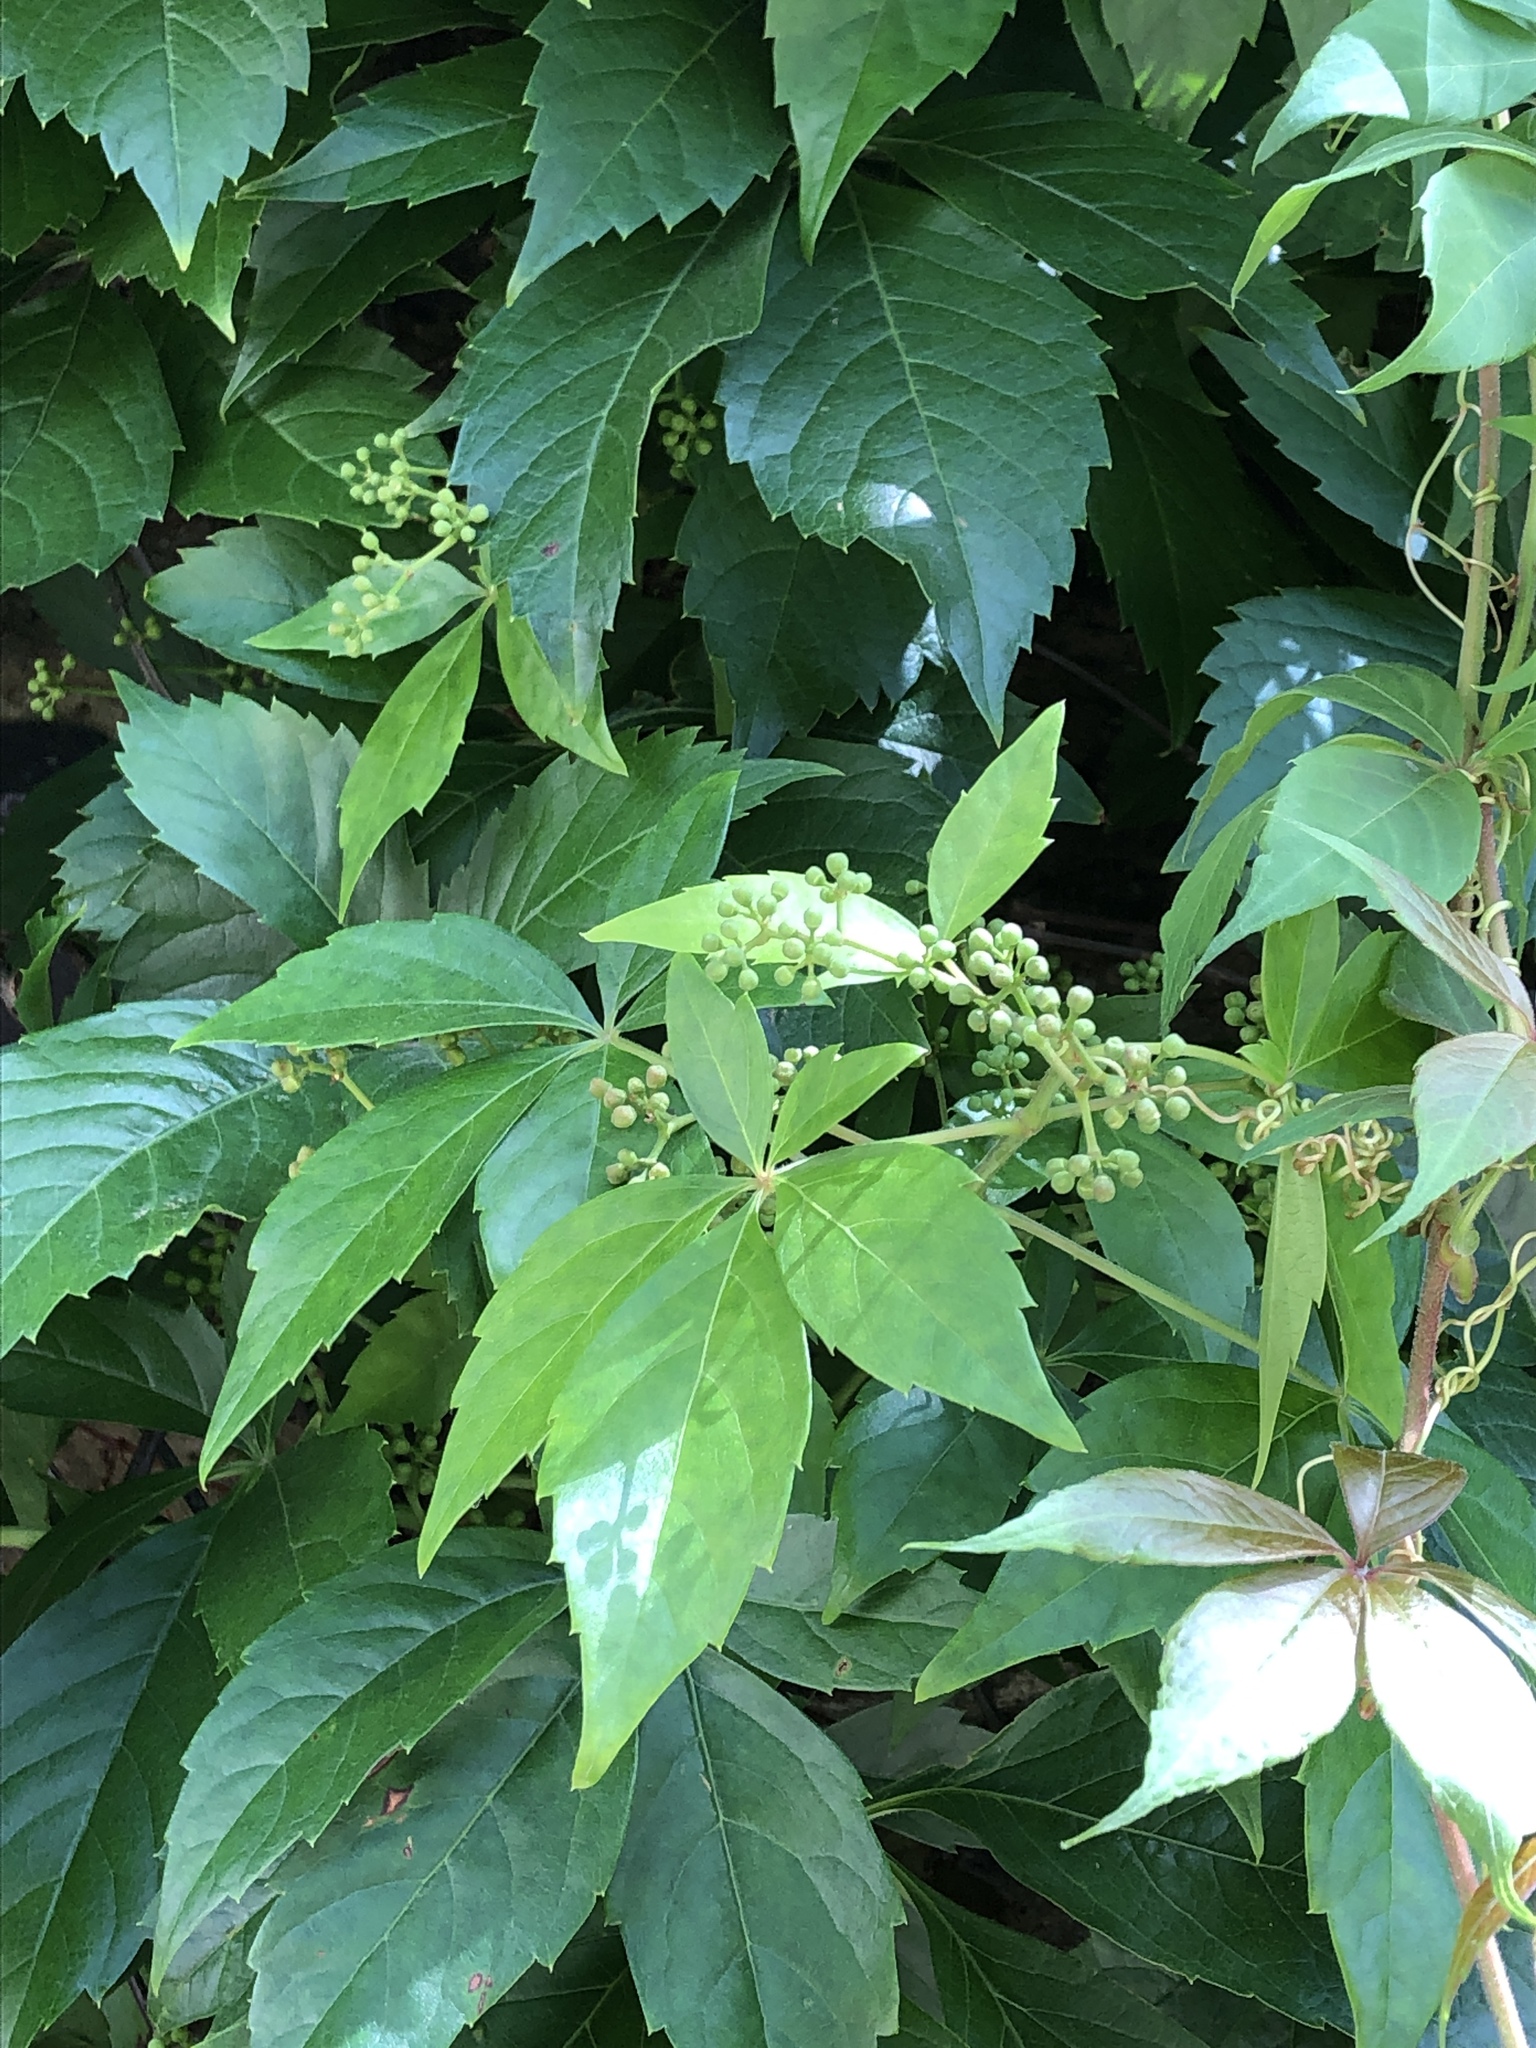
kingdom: Plantae
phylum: Tracheophyta
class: Magnoliopsida
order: Vitales
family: Vitaceae
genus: Parthenocissus
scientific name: Parthenocissus quinquefolia
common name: Virginia-creeper
